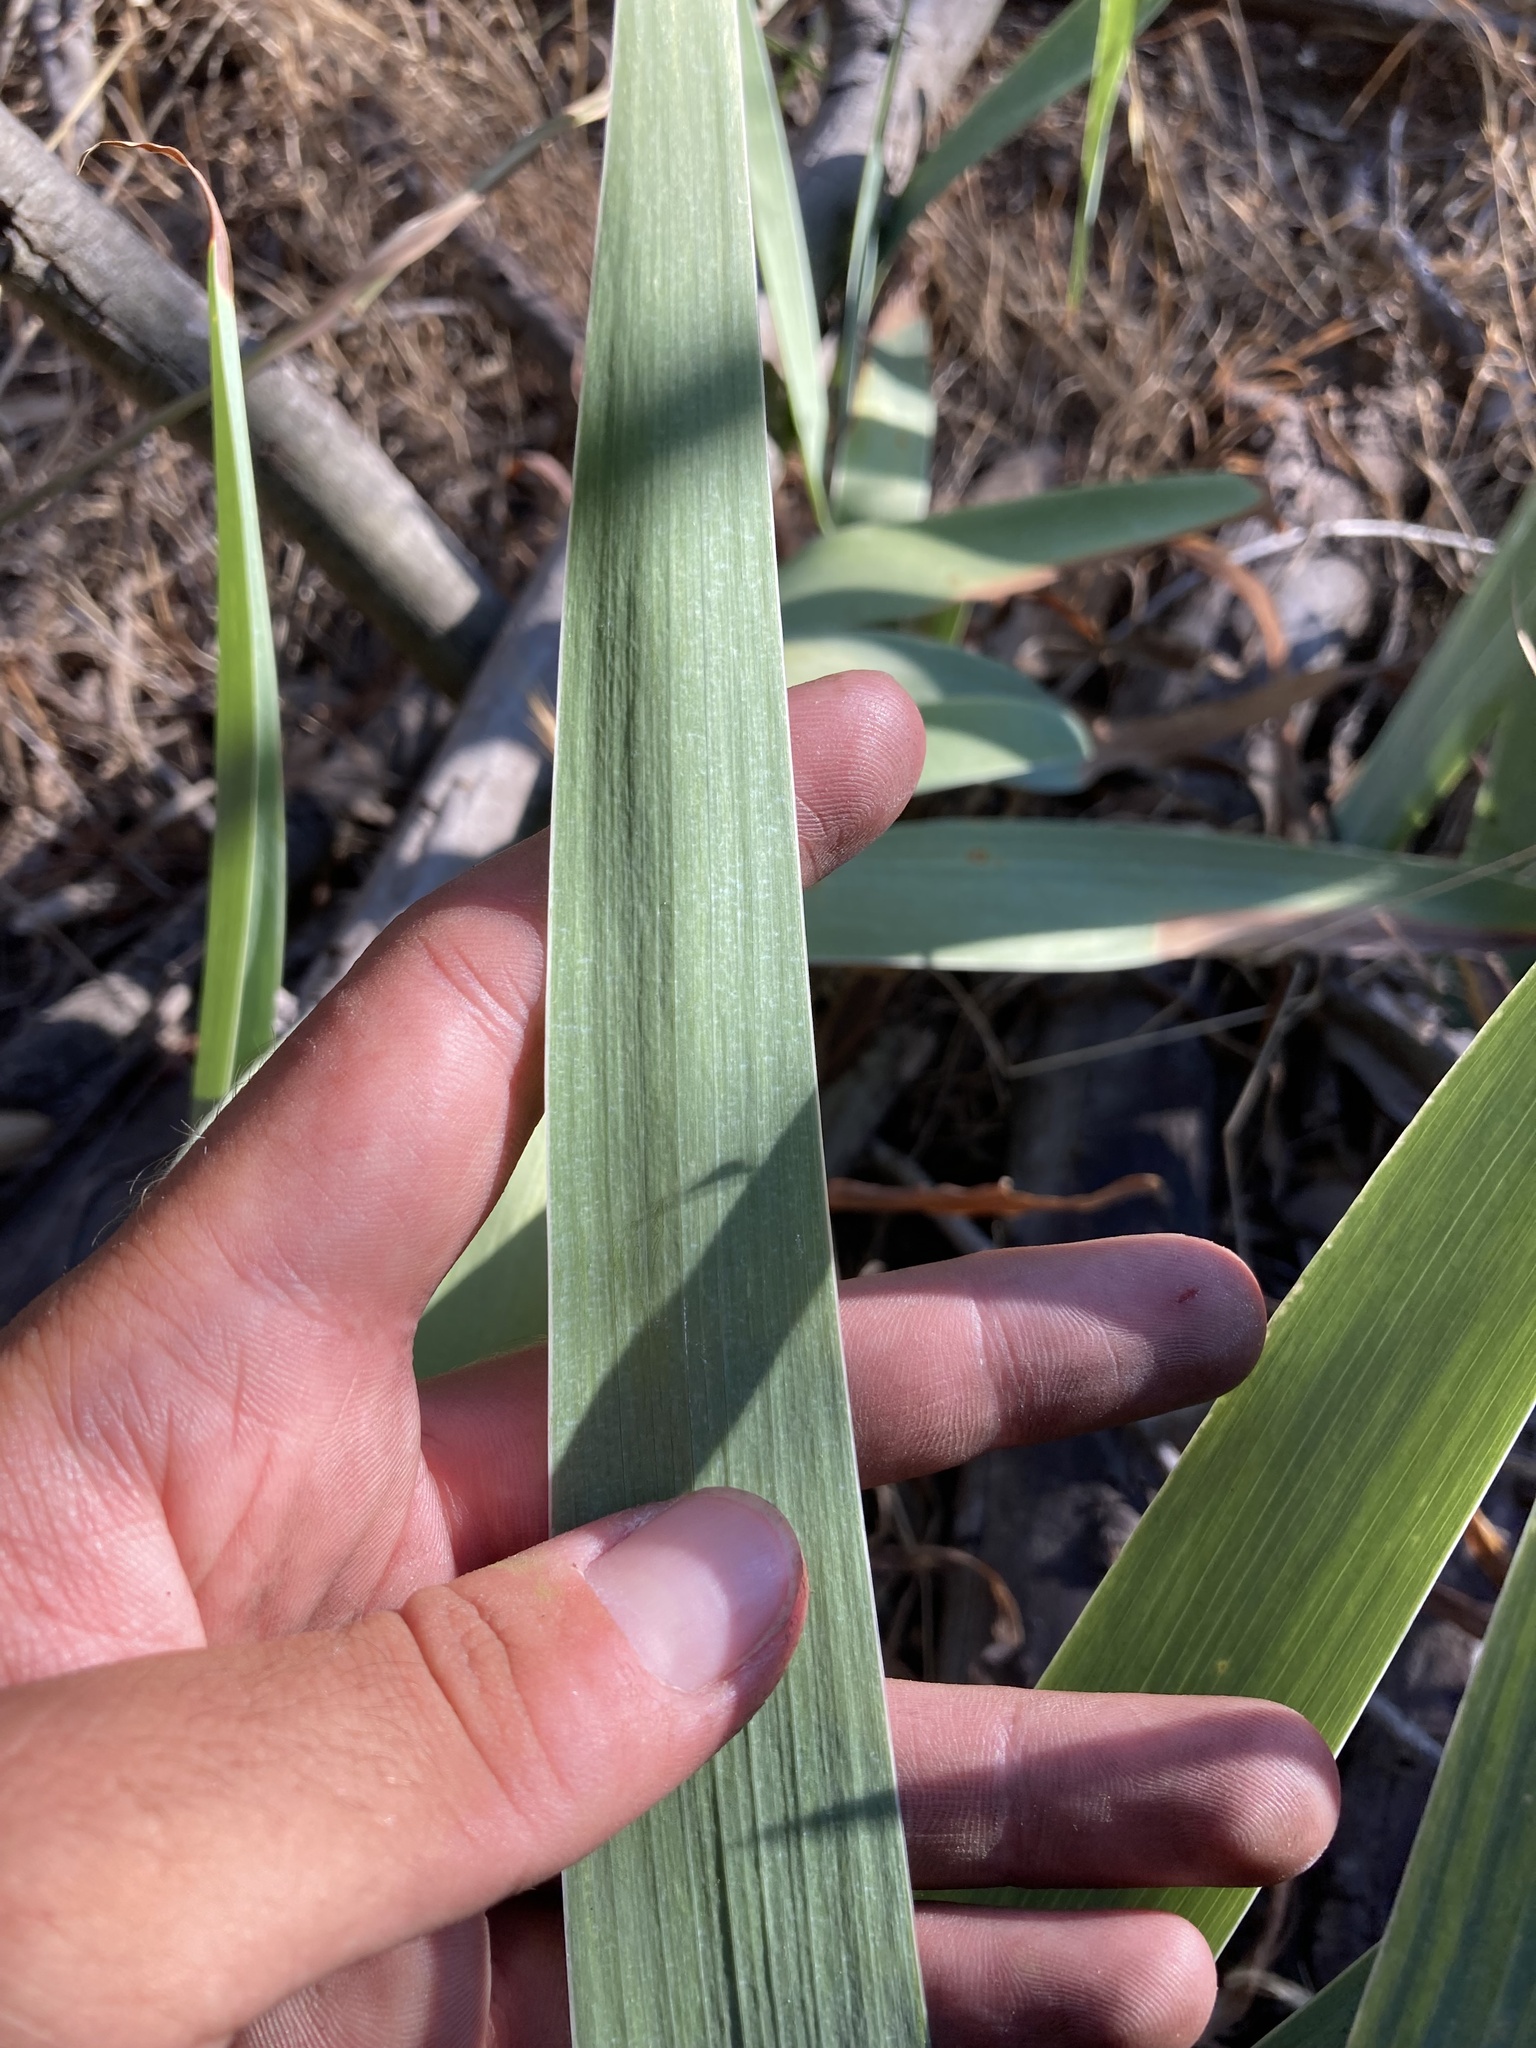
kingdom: Plantae
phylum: Tracheophyta
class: Liliopsida
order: Asparagales
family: Iridaceae
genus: Iris
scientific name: Iris germanica
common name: German iris
